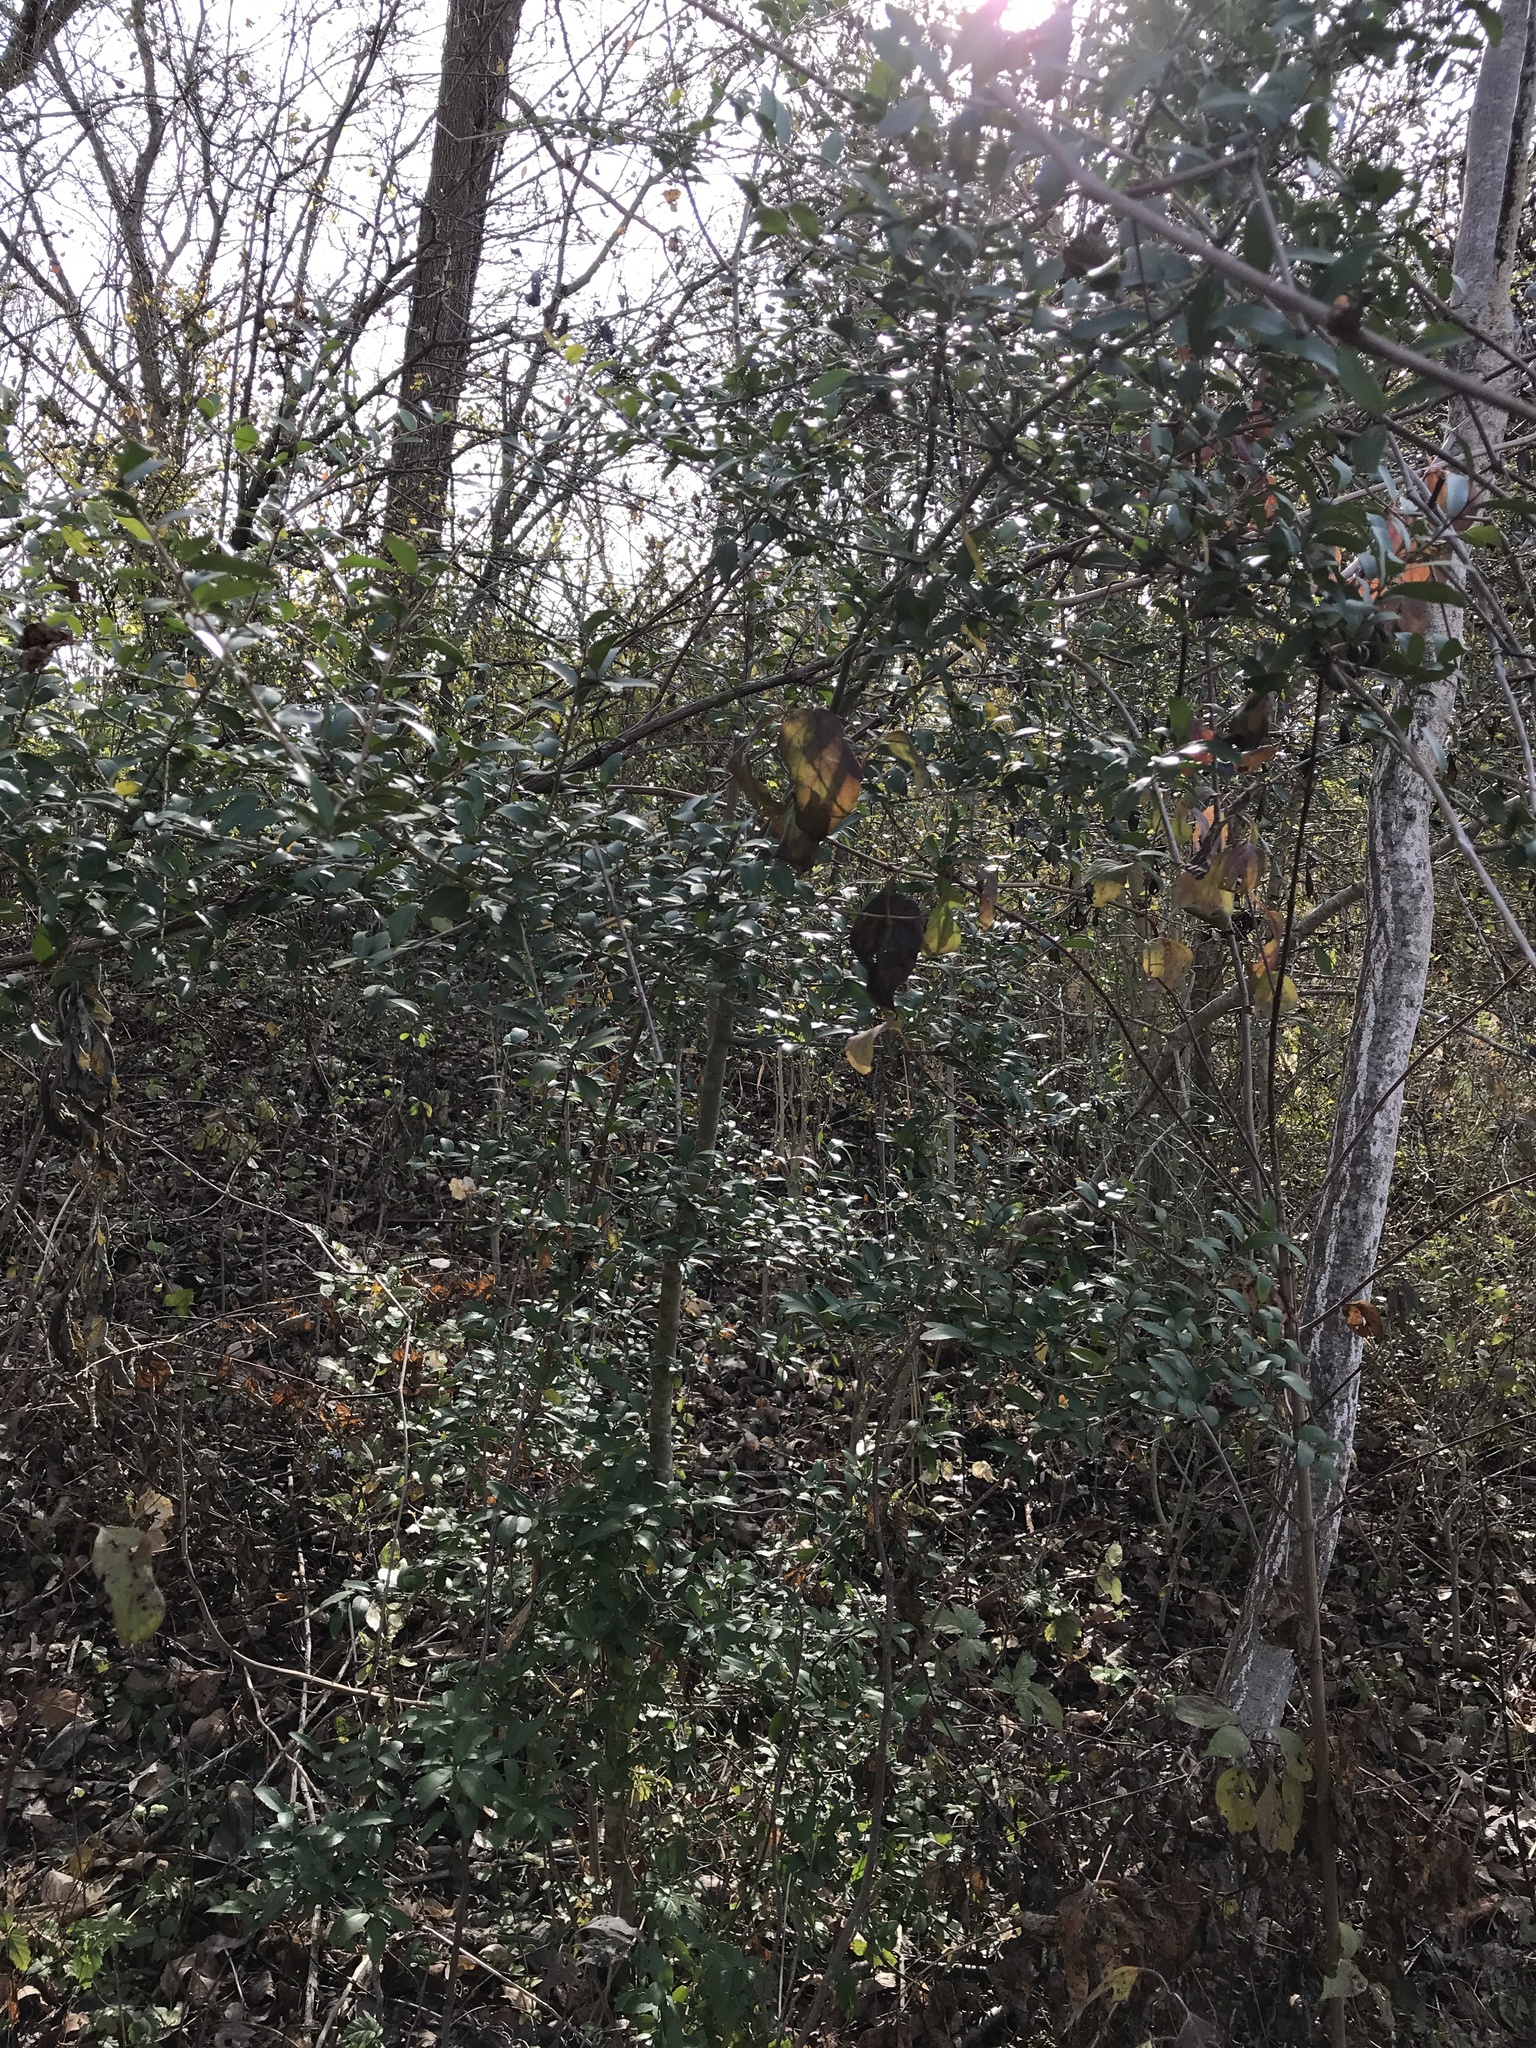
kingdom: Plantae
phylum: Tracheophyta
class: Magnoliopsida
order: Aquifoliales
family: Aquifoliaceae
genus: Ilex
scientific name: Ilex vomitoria
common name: Yaupon holly
